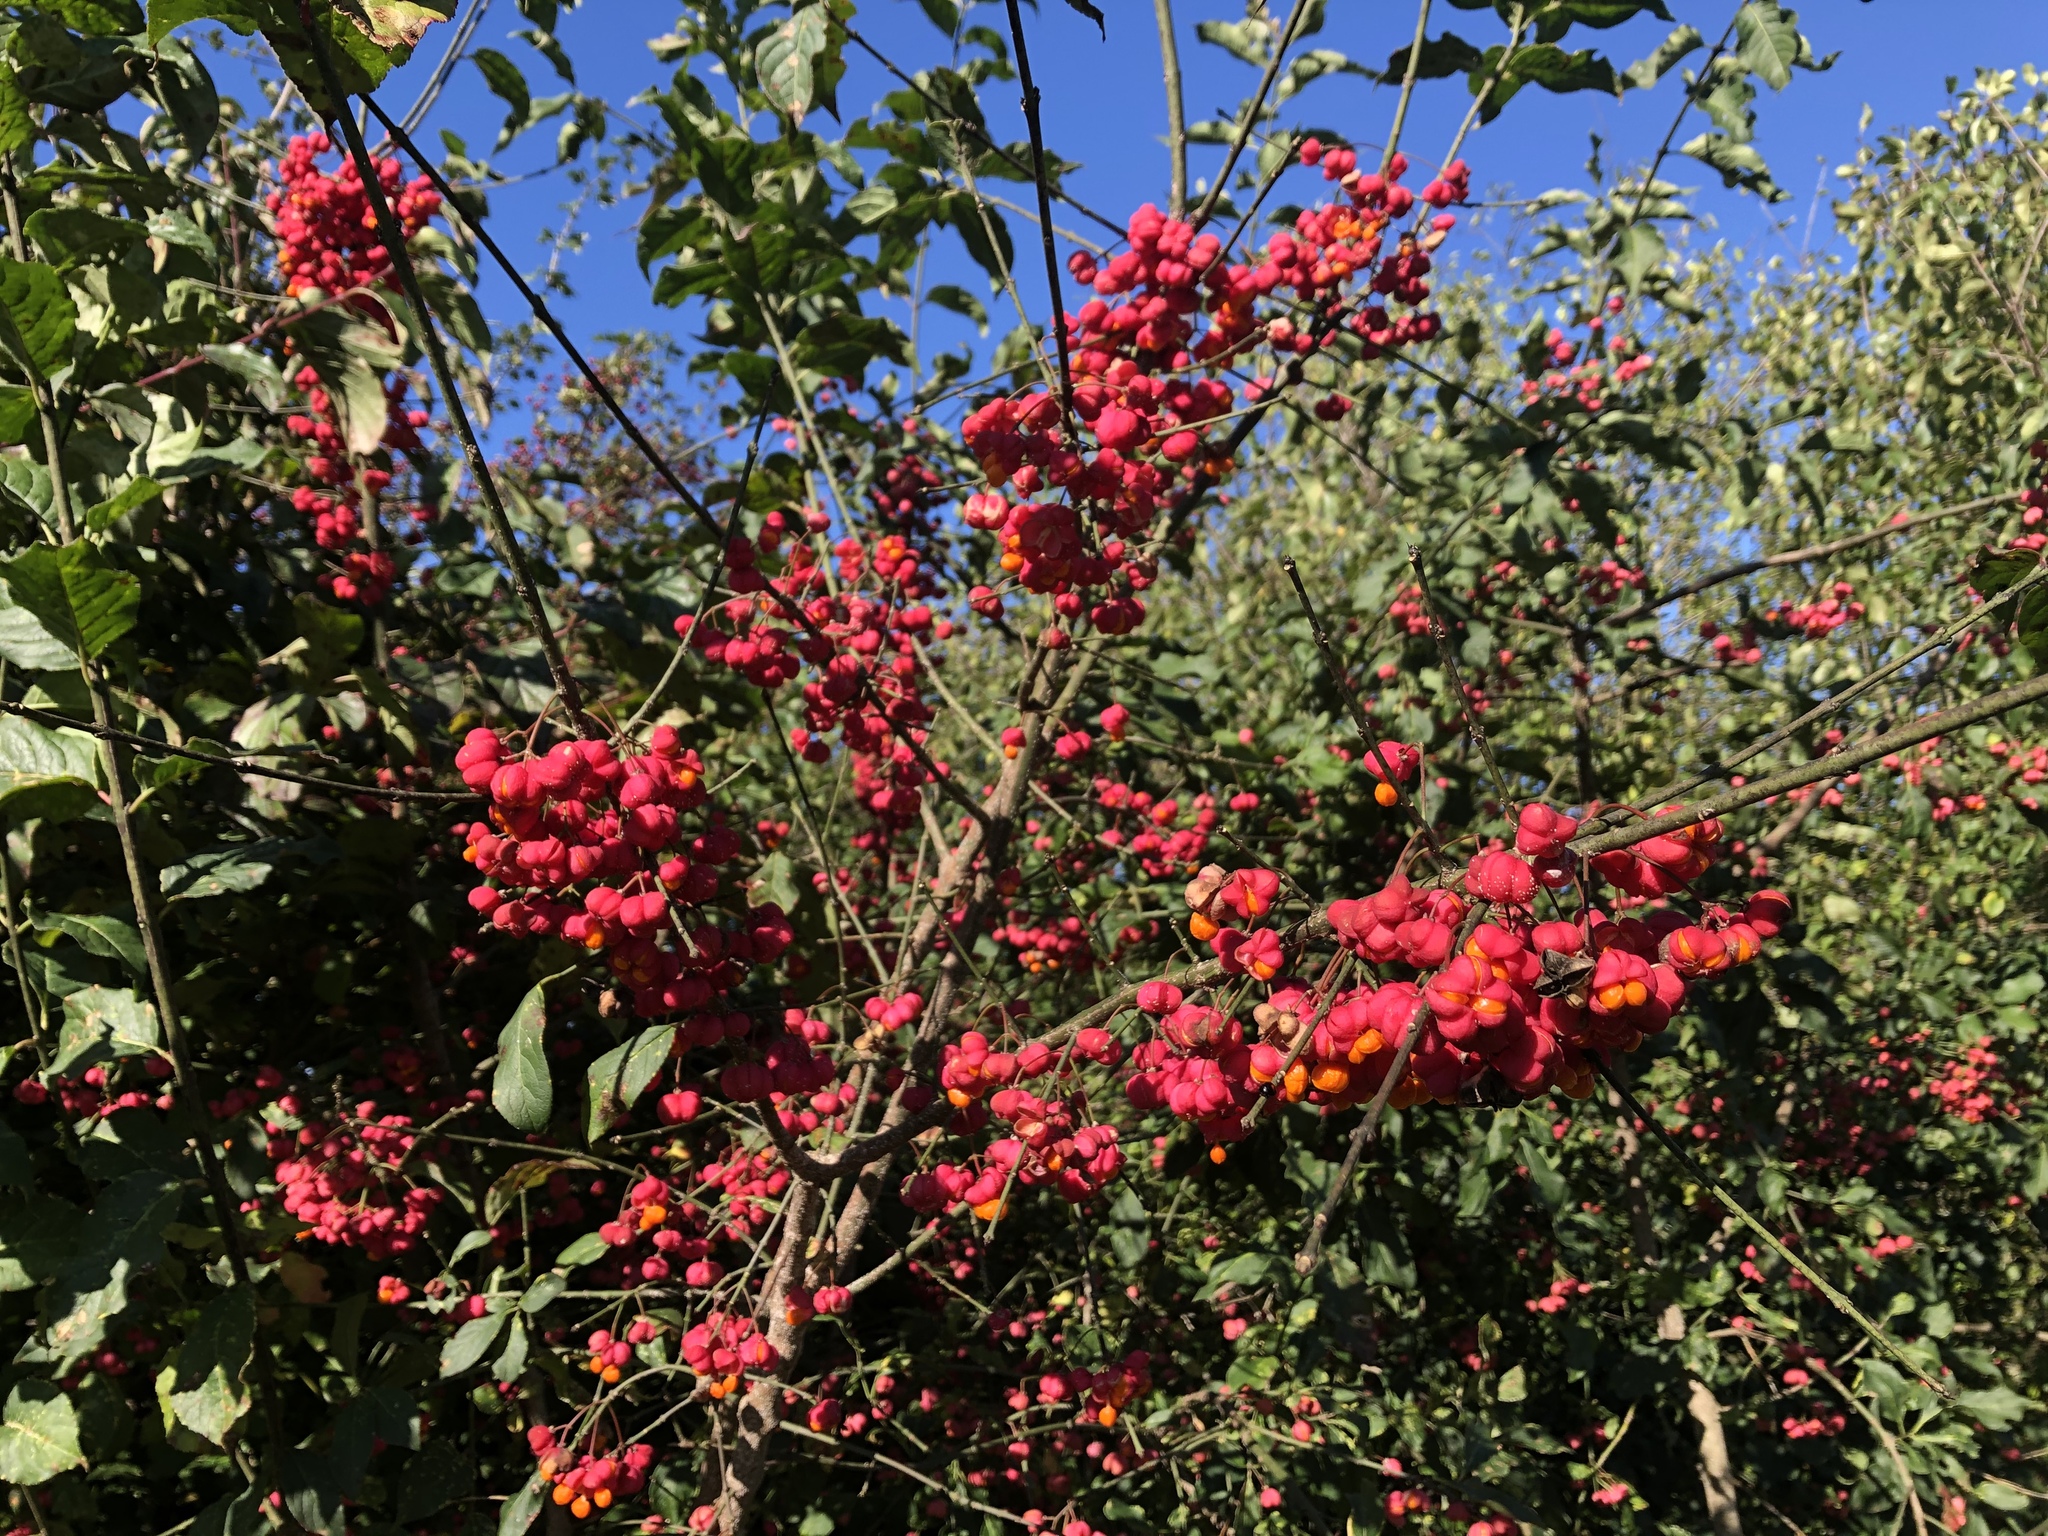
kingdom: Plantae
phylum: Tracheophyta
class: Magnoliopsida
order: Celastrales
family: Celastraceae
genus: Euonymus
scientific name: Euonymus europaeus
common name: Spindle
